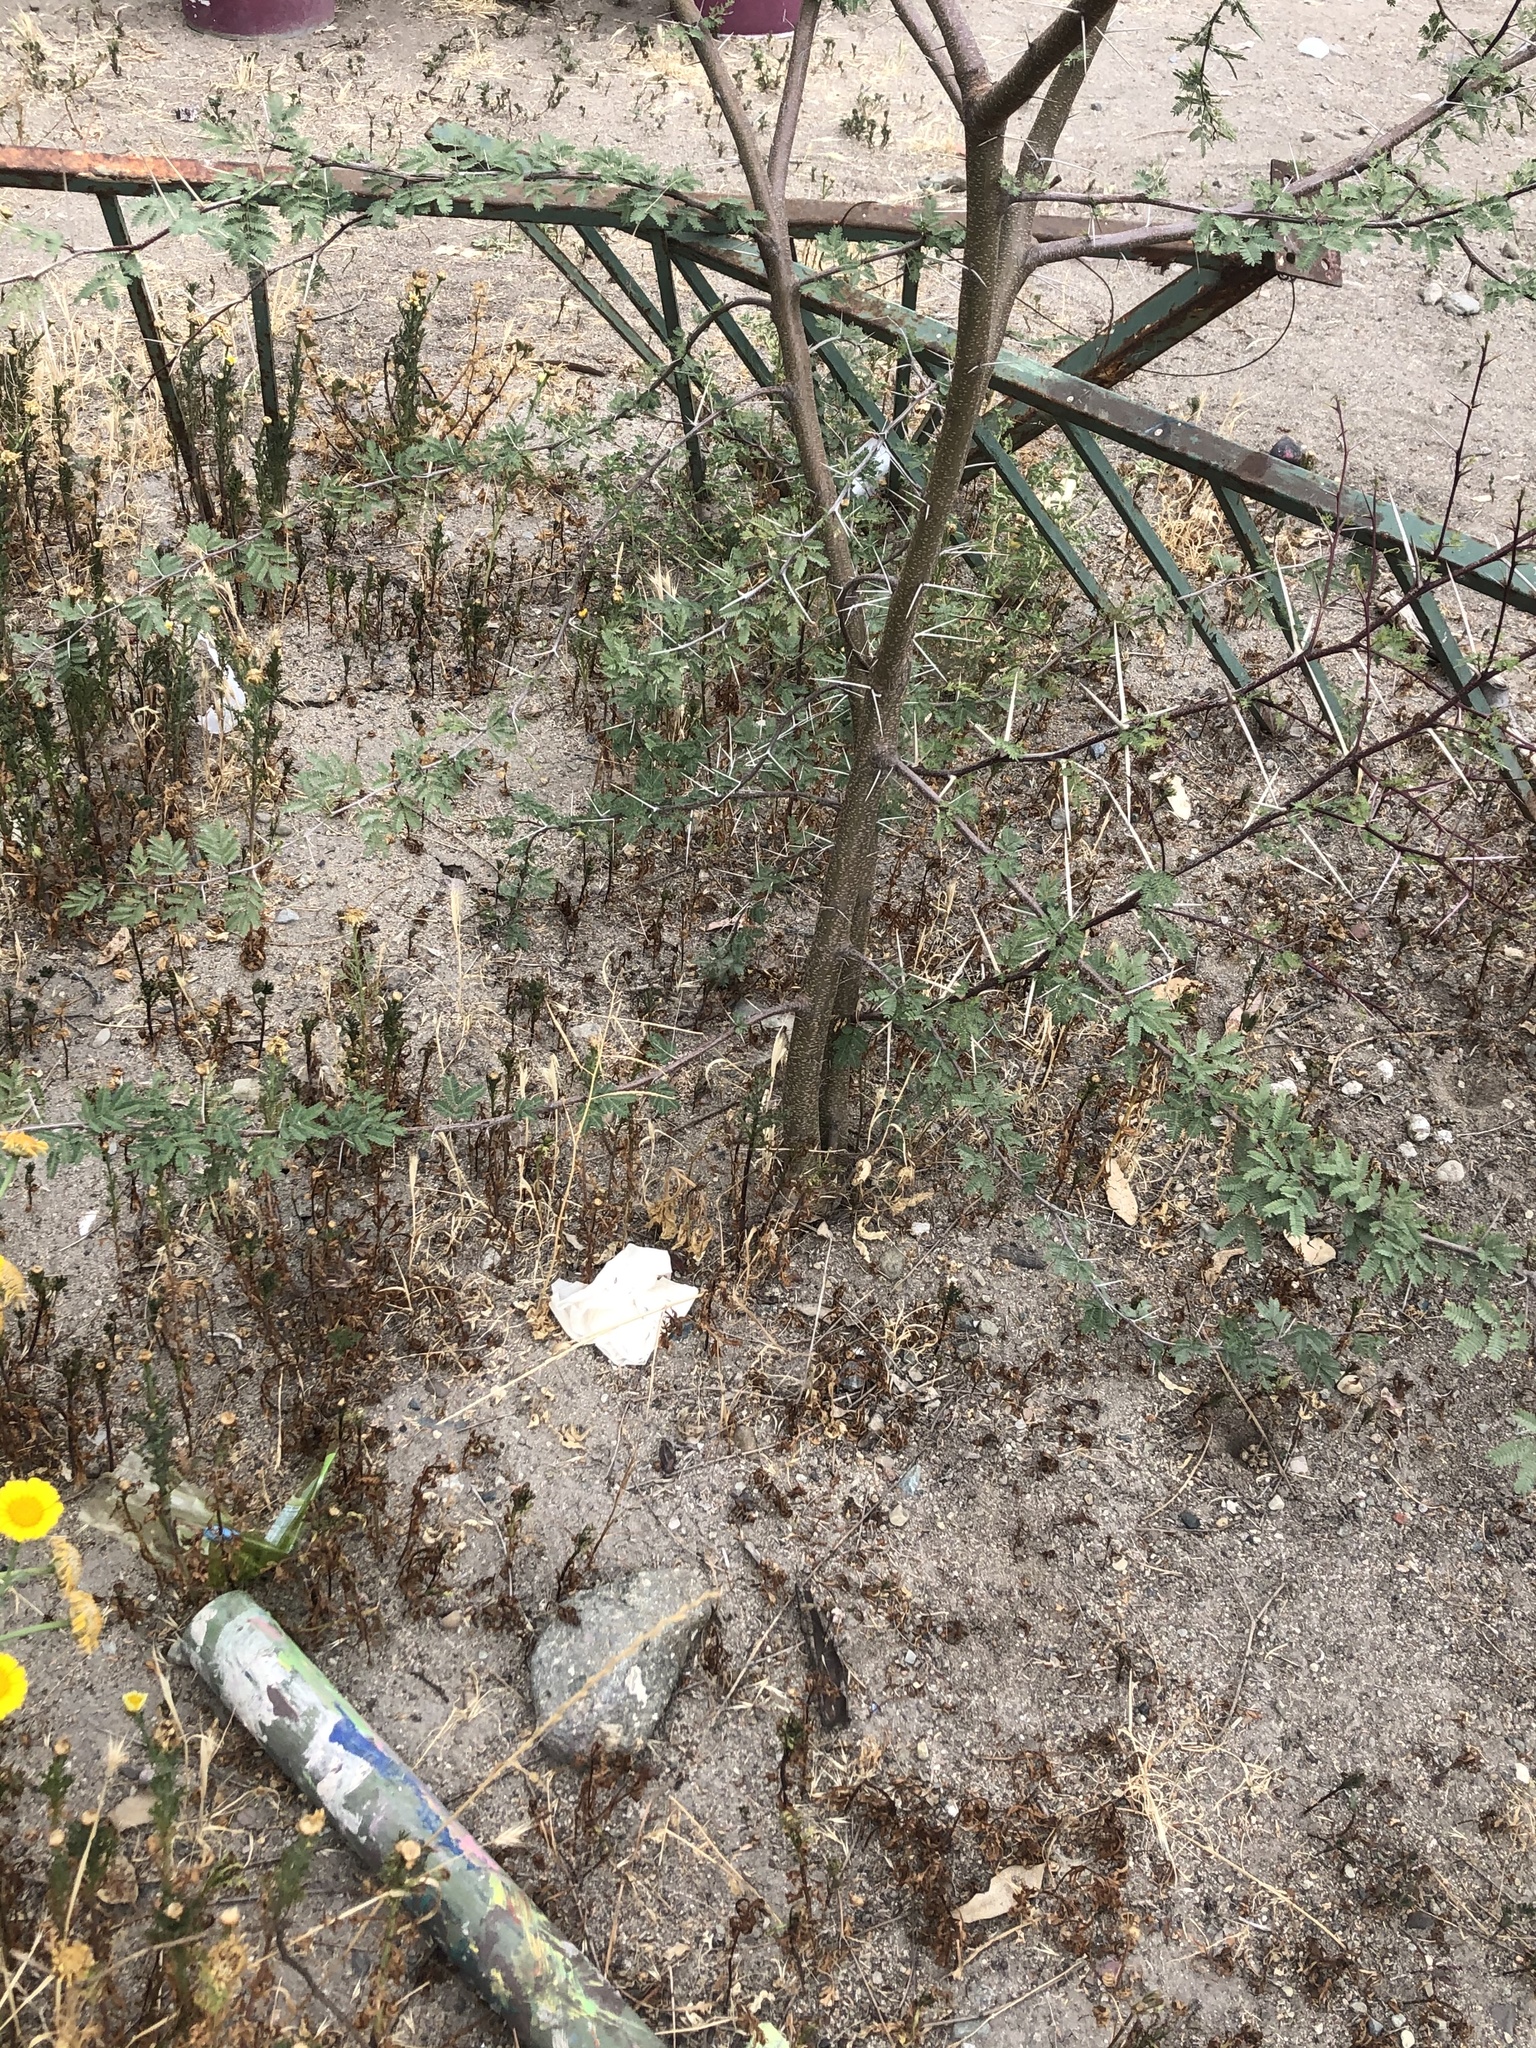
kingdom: Plantae
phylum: Tracheophyta
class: Magnoliopsida
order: Fabales
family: Fabaceae
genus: Vachellia
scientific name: Vachellia farnesiana
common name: Sweet acacia
